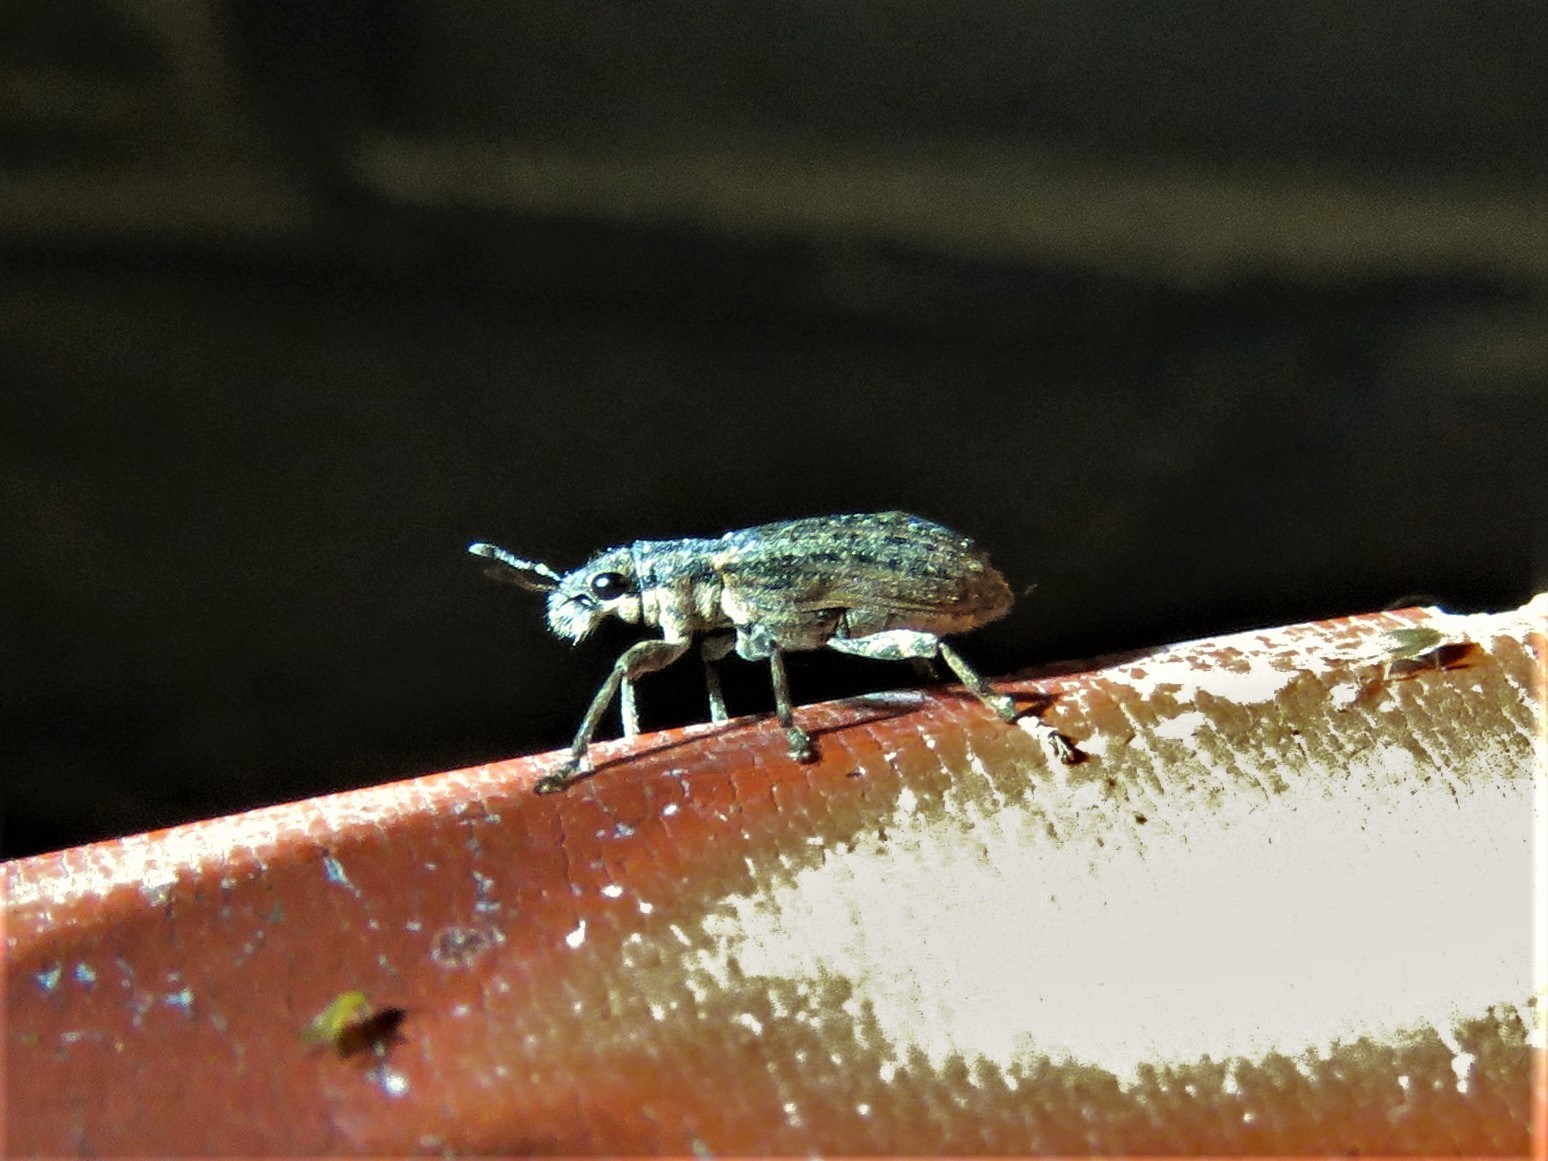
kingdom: Animalia
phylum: Arthropoda
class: Insecta
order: Coleoptera
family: Curculionidae
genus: Sitones
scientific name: Sitones californius
